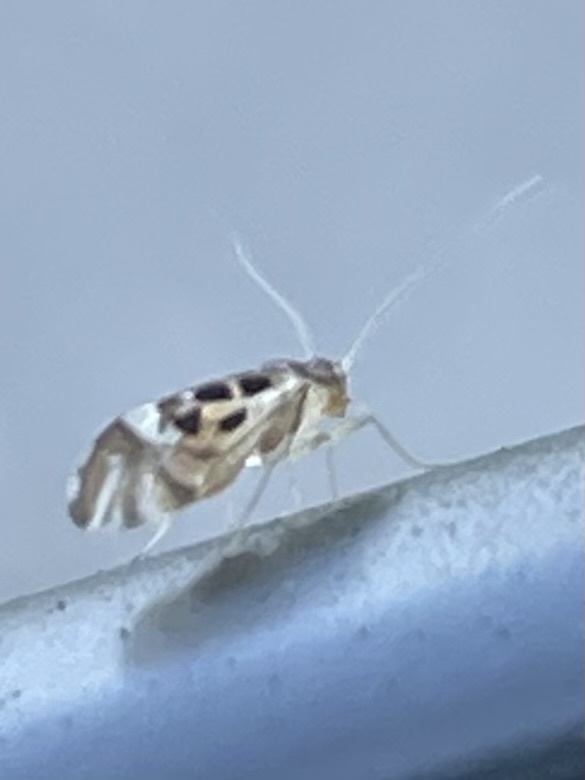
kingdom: Animalia
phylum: Arthropoda
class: Insecta
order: Psocodea
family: Stenopsocidae
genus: Graphopsocus
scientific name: Graphopsocus cruciatus
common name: Lizard bark louse
